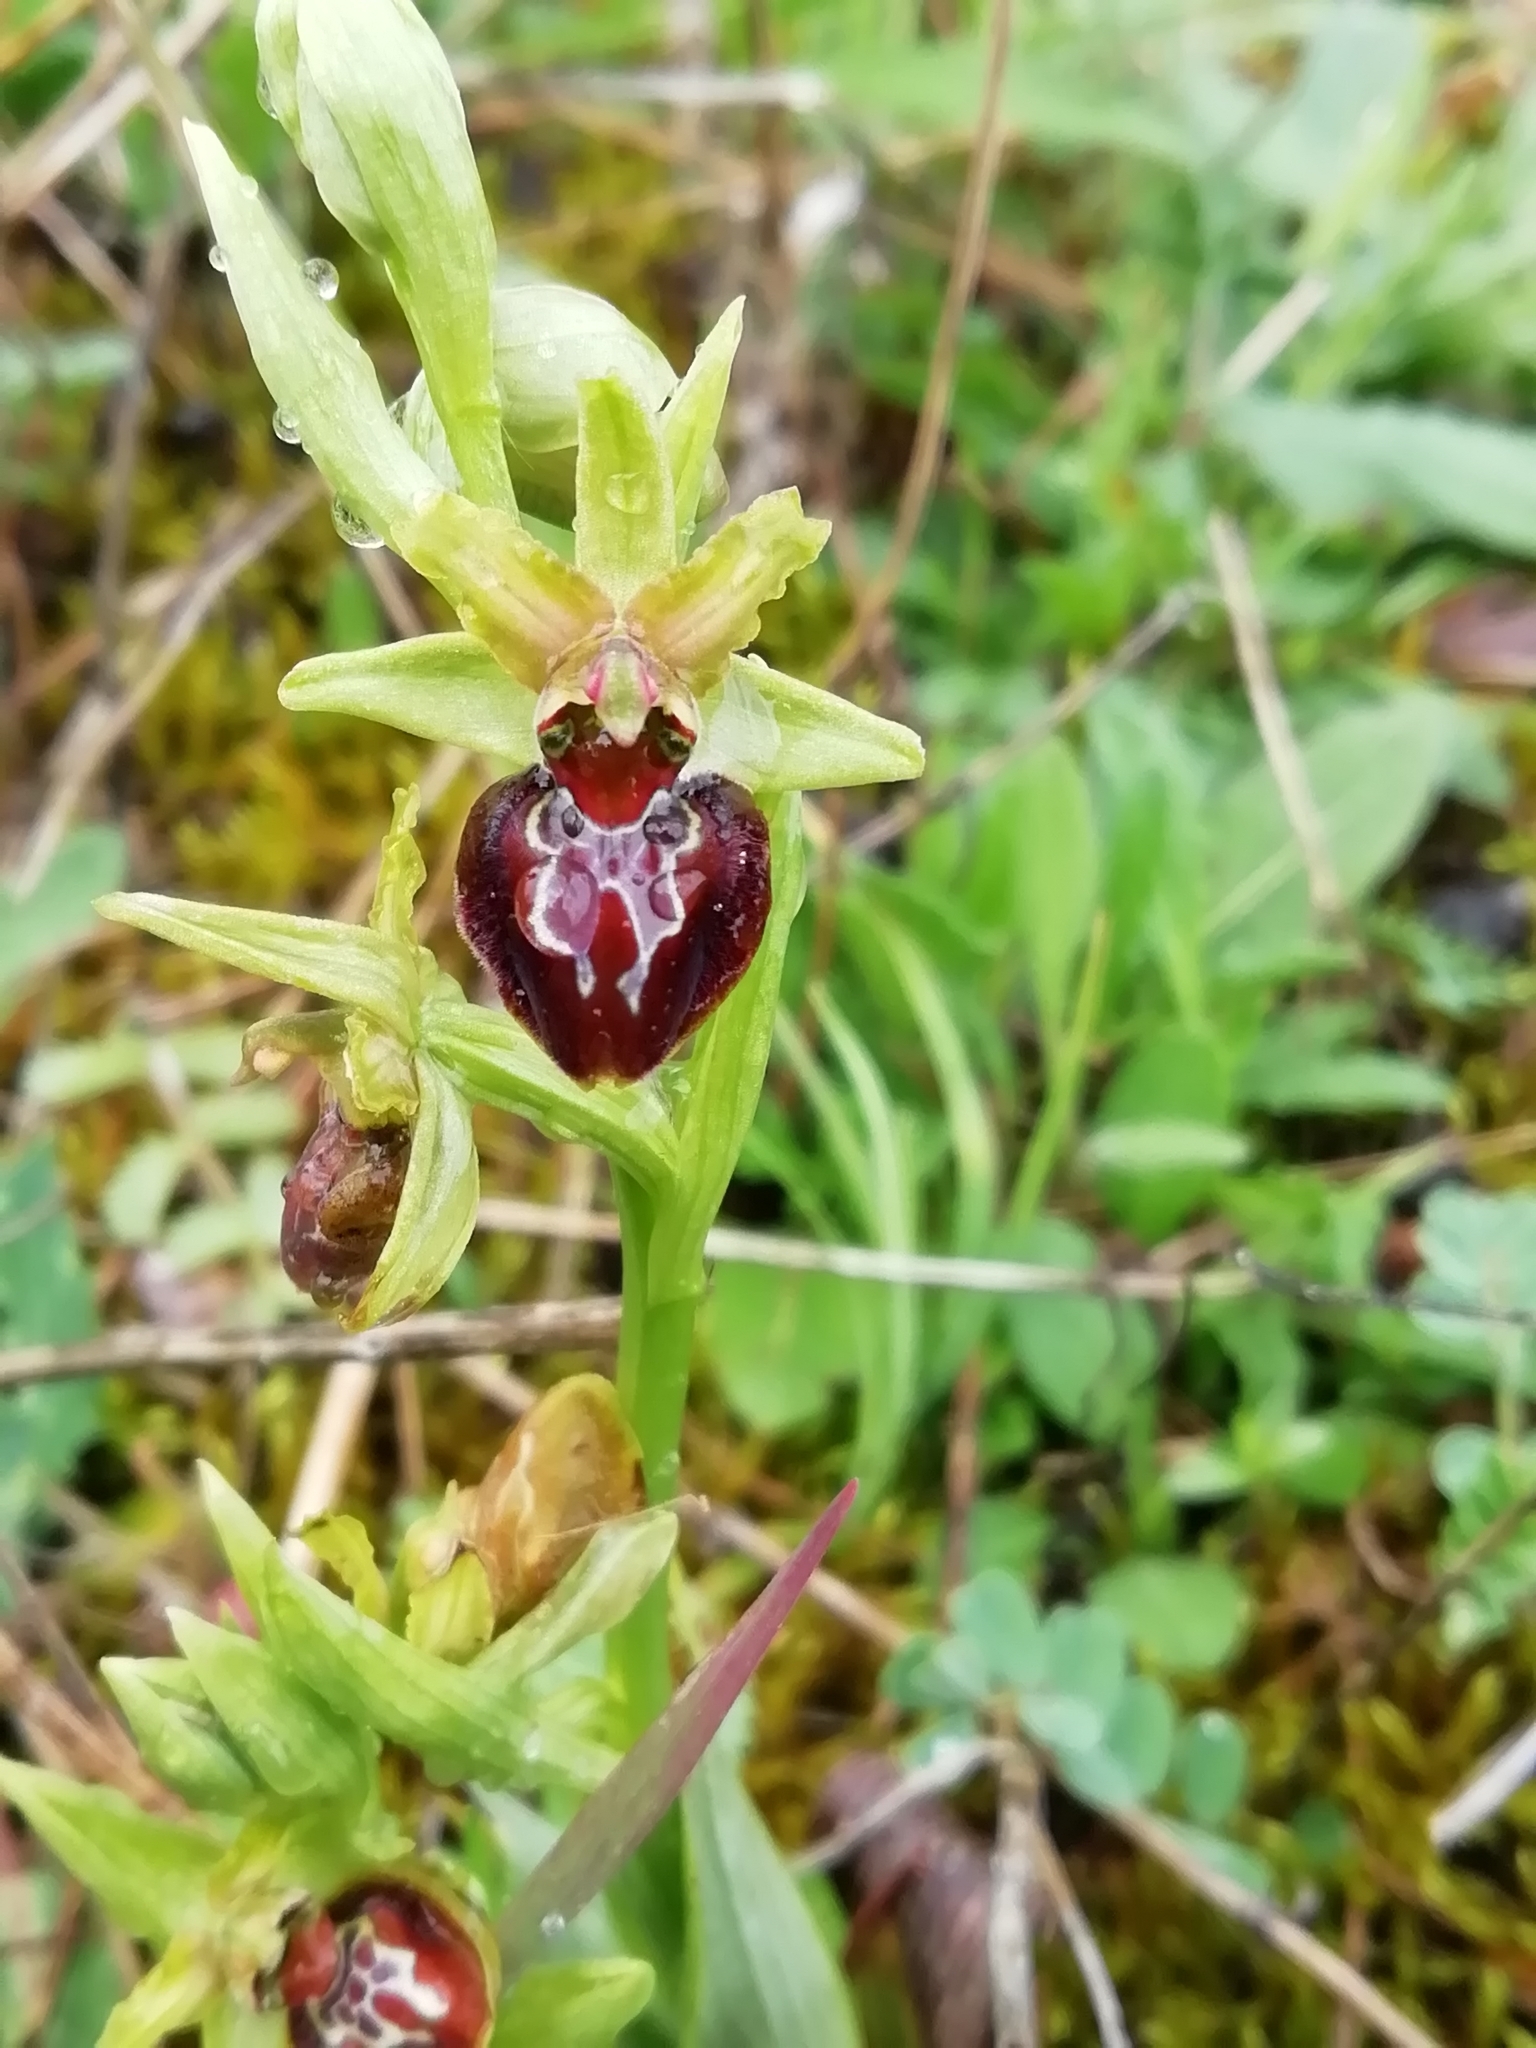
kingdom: Plantae
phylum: Tracheophyta
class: Liliopsida
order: Asparagales
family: Orchidaceae
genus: Ophrys
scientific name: Ophrys sphegodes
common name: Early spider-orchid
